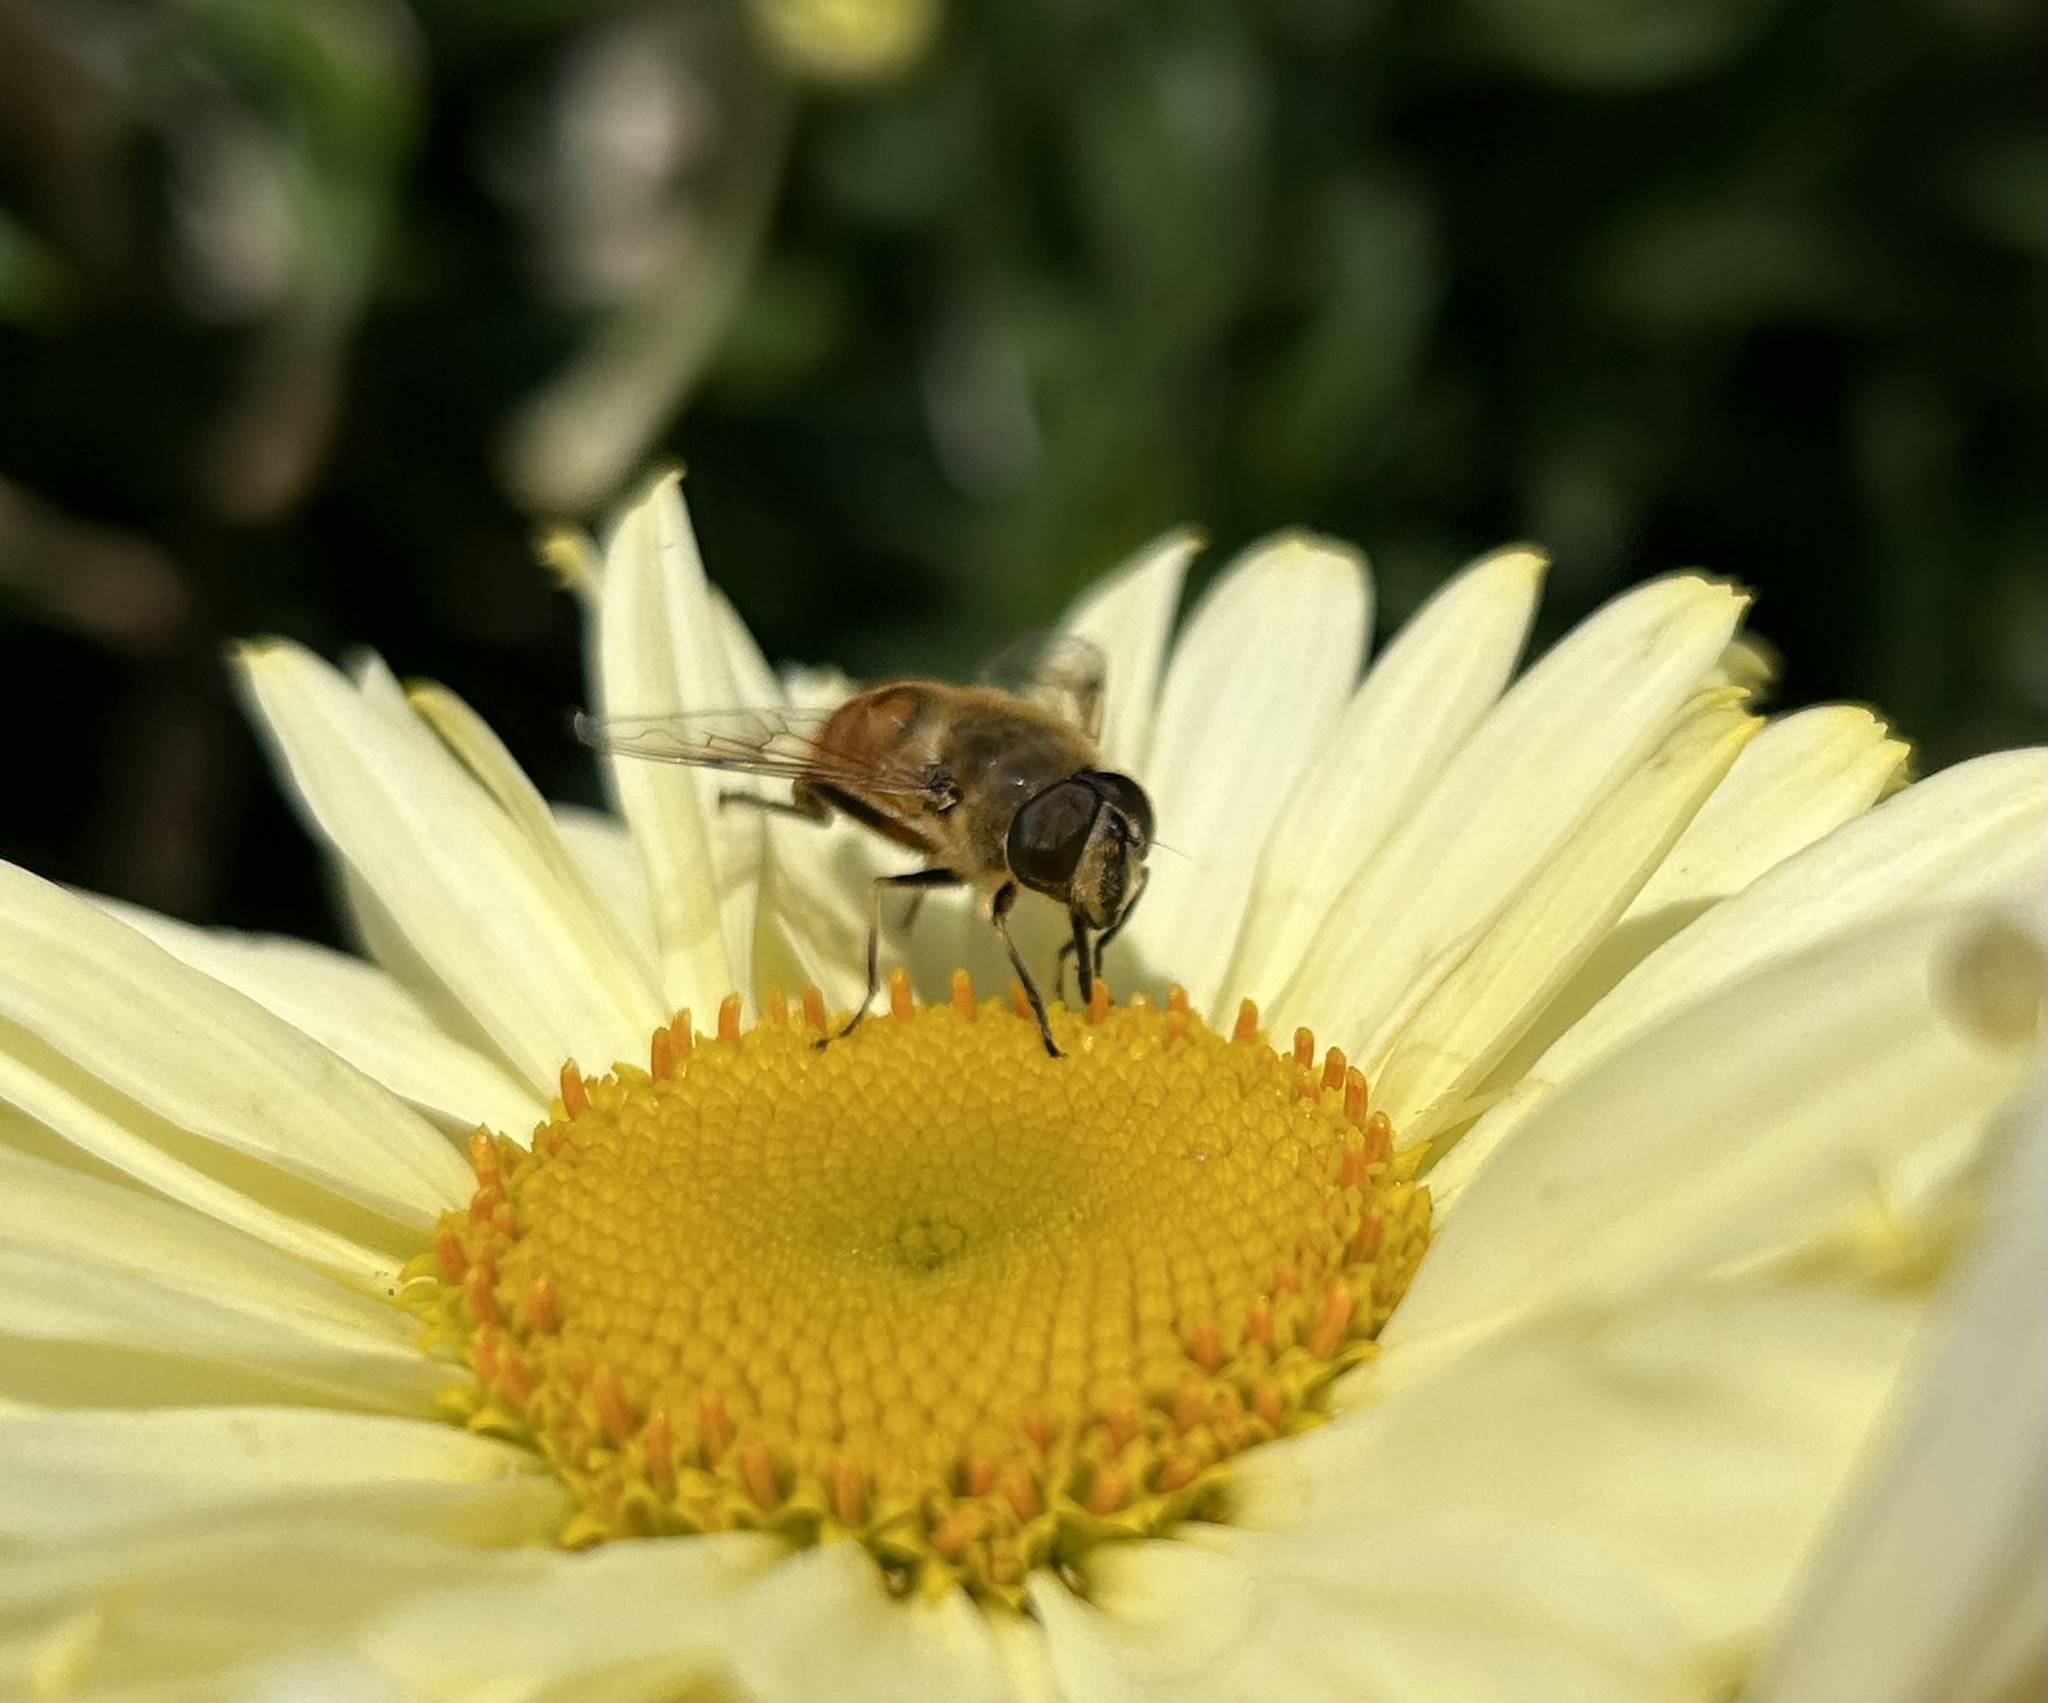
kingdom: Animalia
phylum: Arthropoda
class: Insecta
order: Diptera
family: Syrphidae
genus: Eristalis
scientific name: Eristalis tenax
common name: Drone fly
